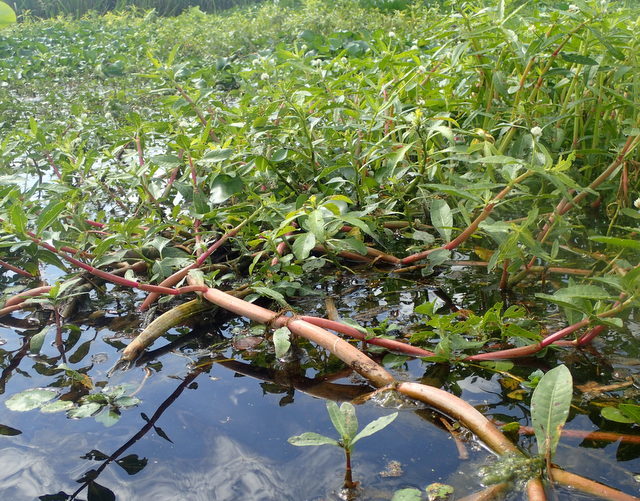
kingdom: Plantae
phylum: Tracheophyta
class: Magnoliopsida
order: Caryophyllales
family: Amaranthaceae
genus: Alternanthera
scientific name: Alternanthera philoxeroides
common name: Alligatorweed
